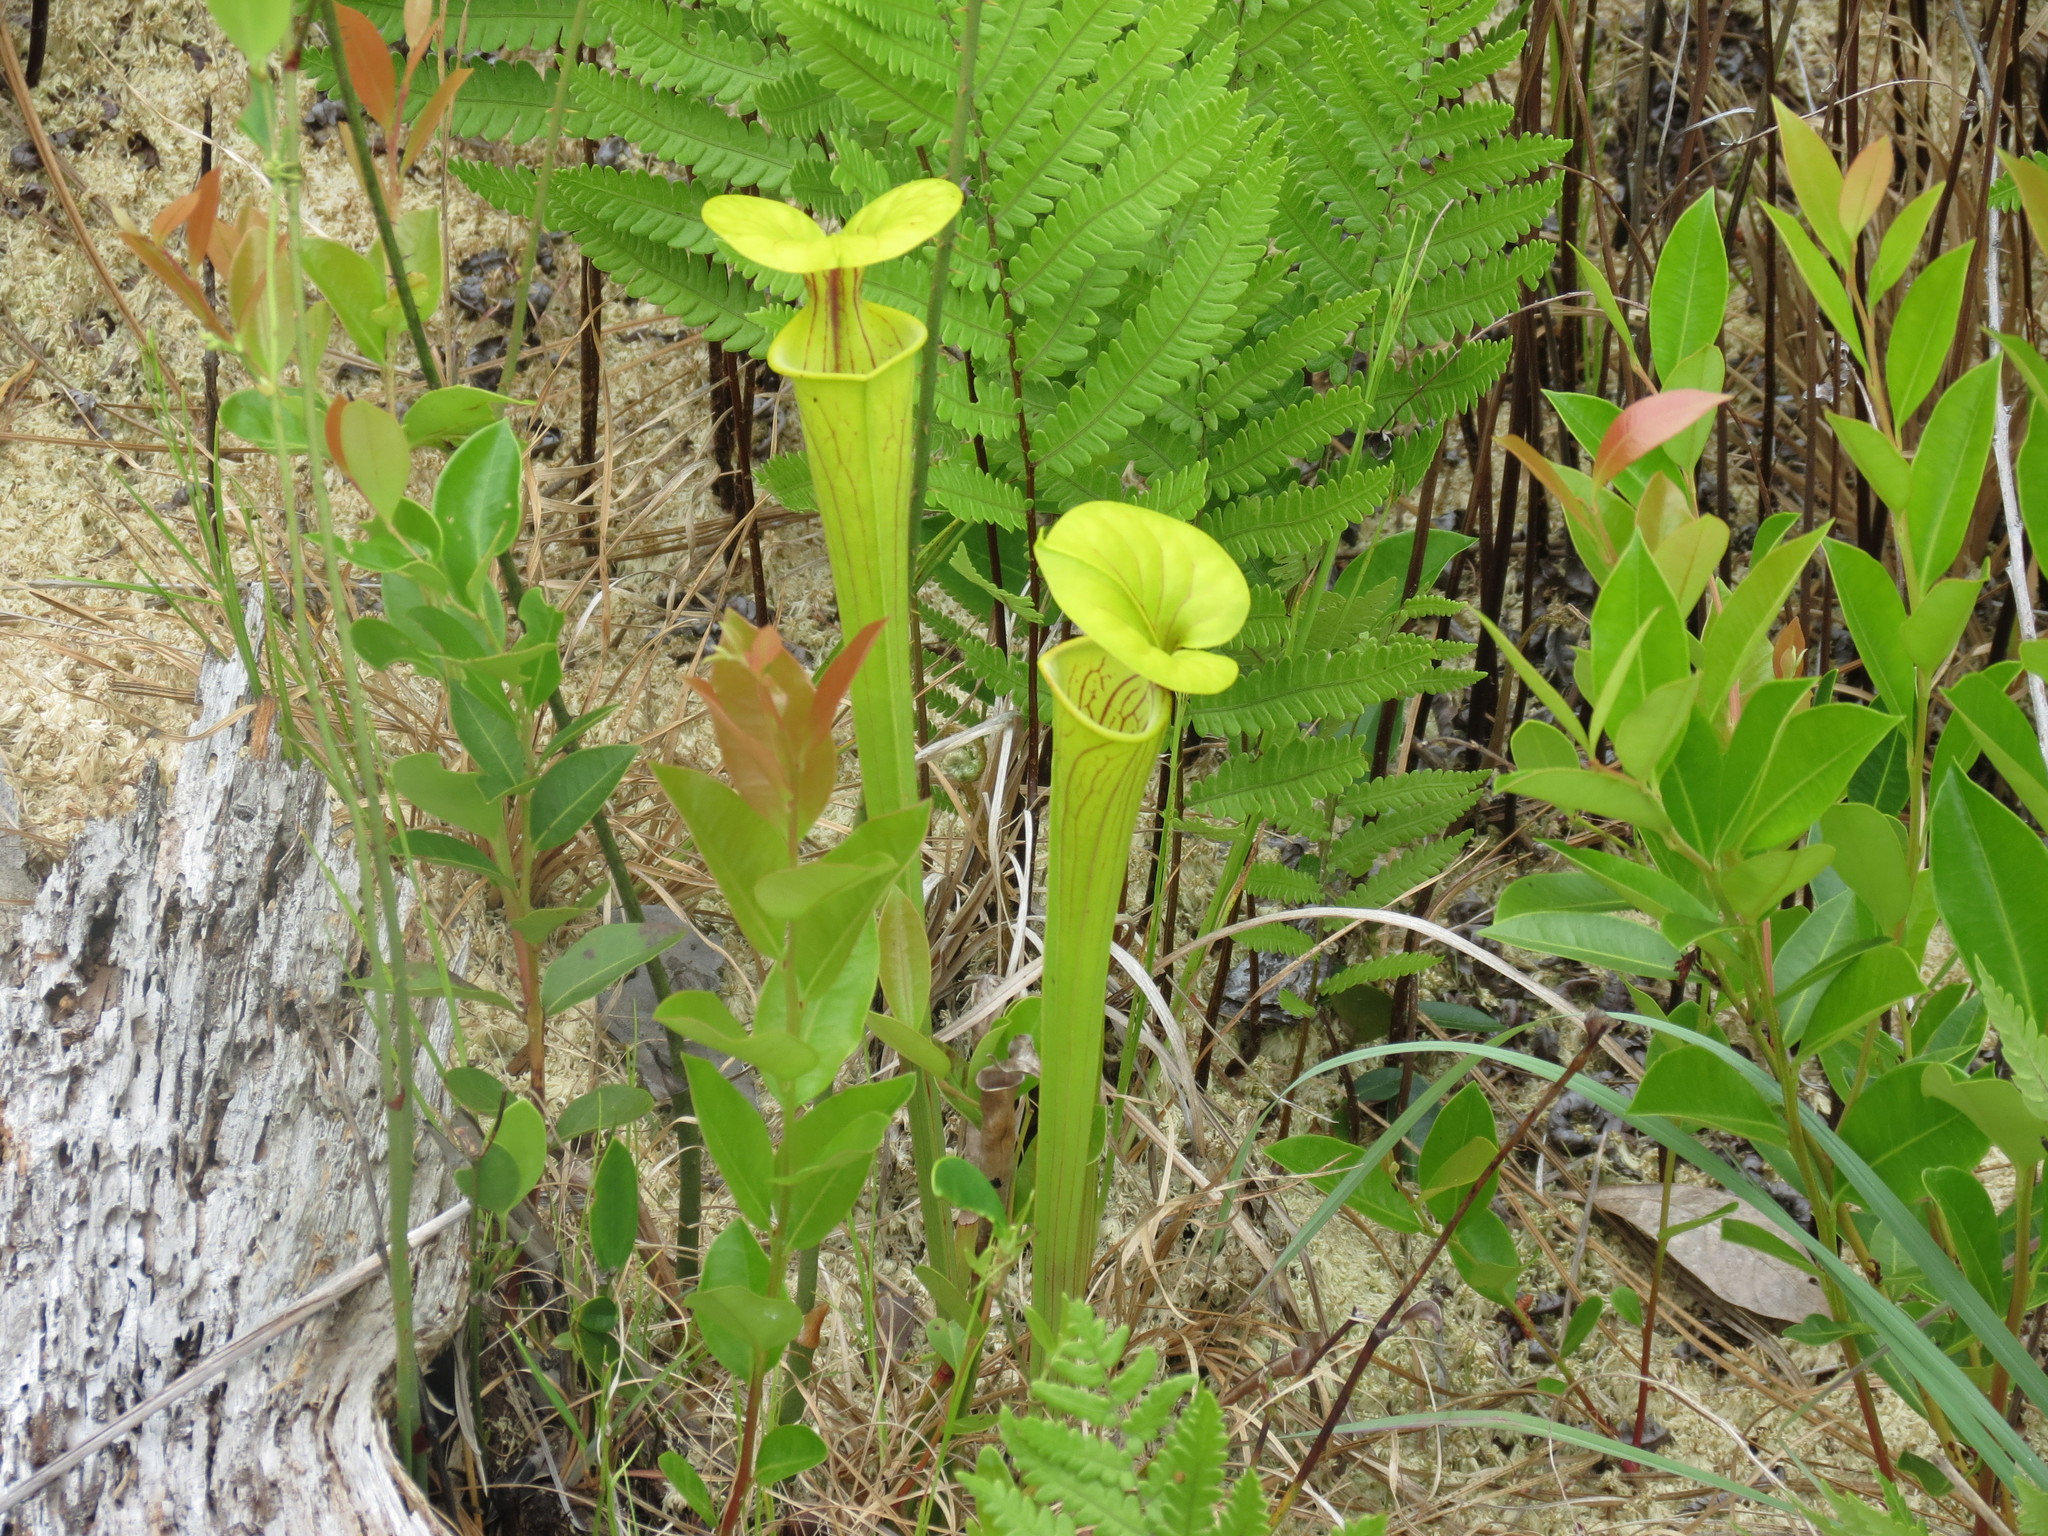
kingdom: Plantae
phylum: Tracheophyta
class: Magnoliopsida
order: Ericales
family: Sarraceniaceae
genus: Sarracenia
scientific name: Sarracenia flava
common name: Trumpets
